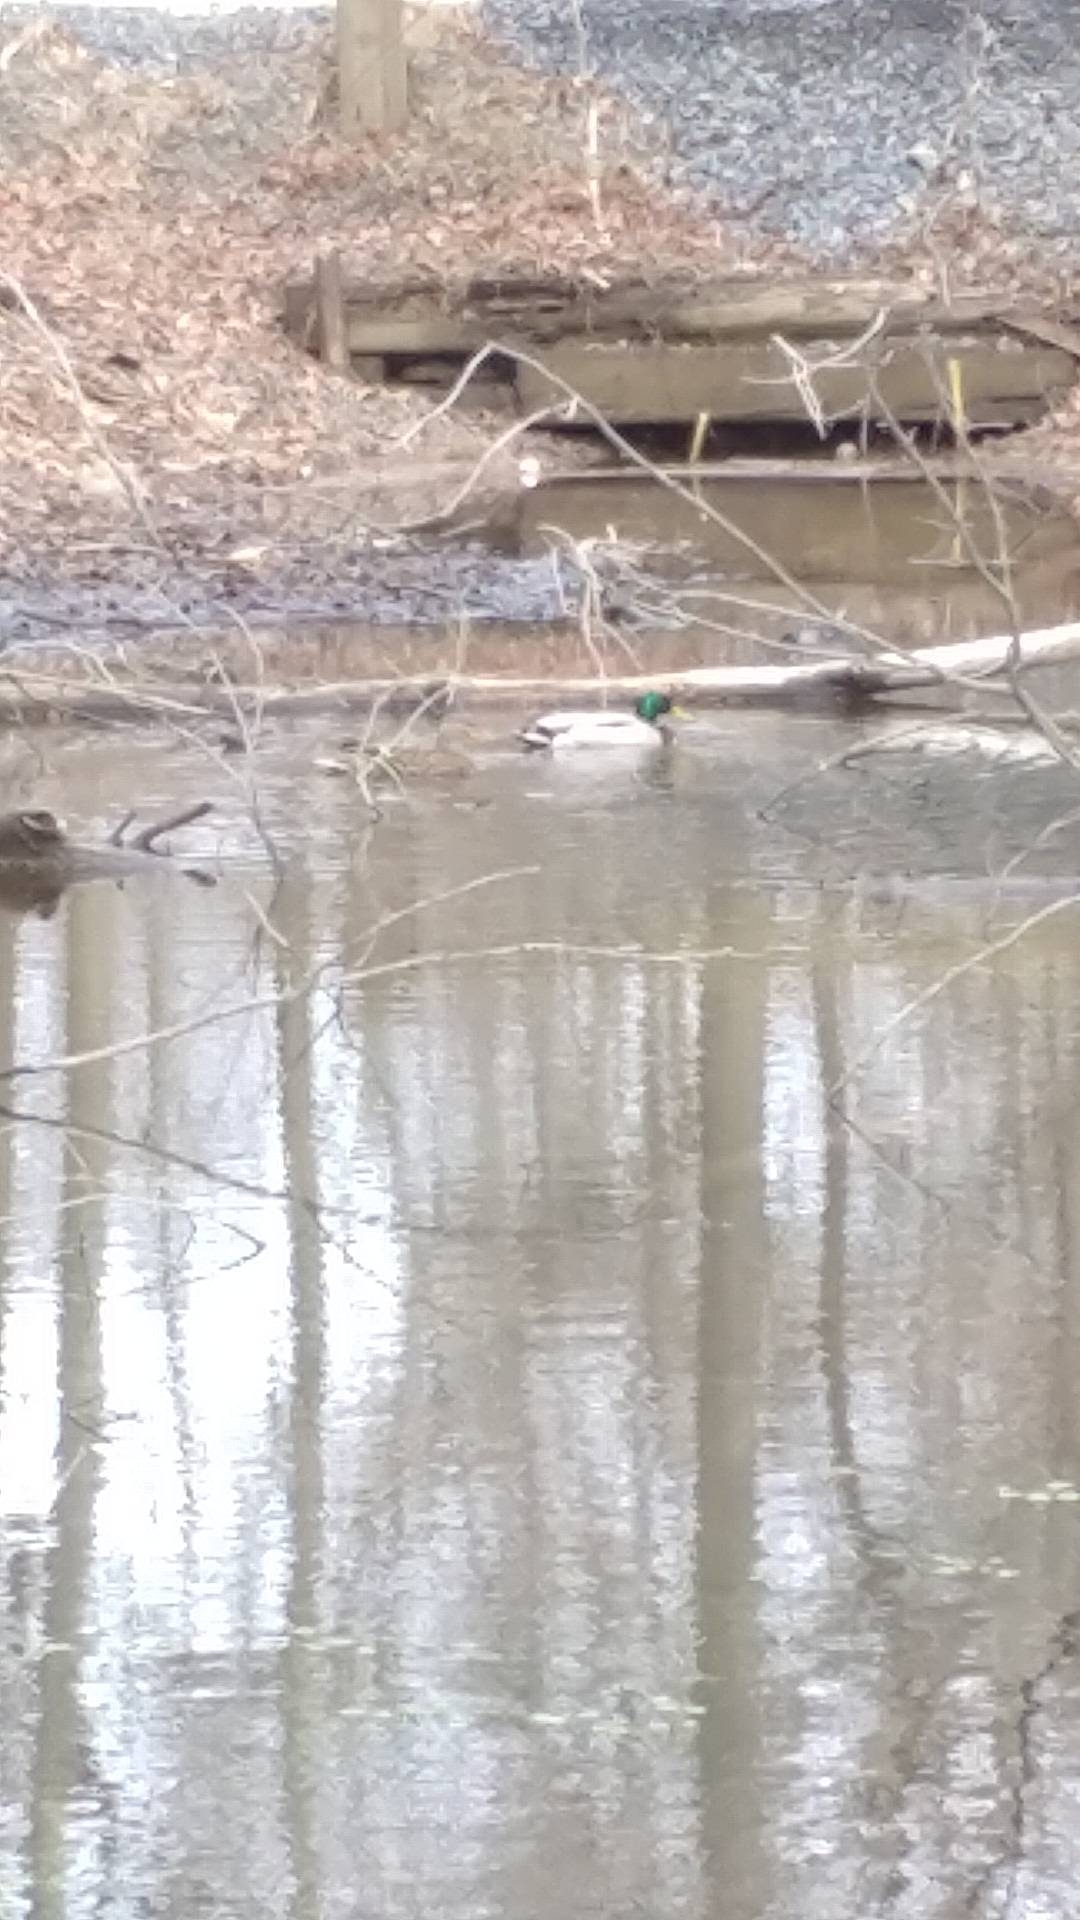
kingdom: Animalia
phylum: Chordata
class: Aves
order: Anseriformes
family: Anatidae
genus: Anas
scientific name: Anas platyrhynchos
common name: Mallard
